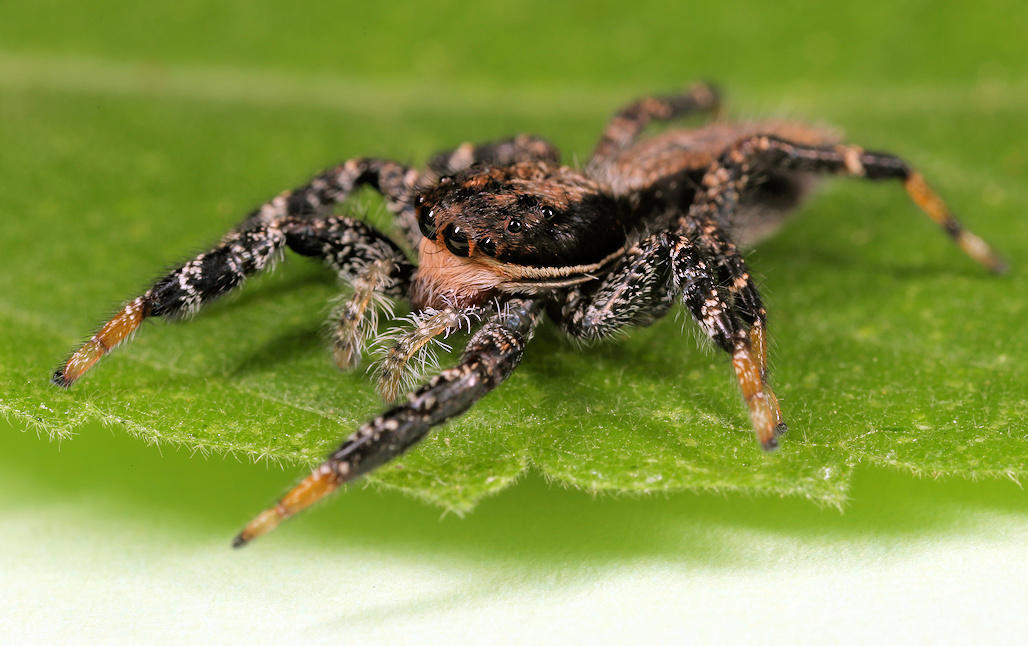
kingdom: Animalia
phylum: Arthropoda
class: Arachnida
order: Araneae
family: Salticidae
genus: Holcolaetis
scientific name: Holcolaetis zuluensis
